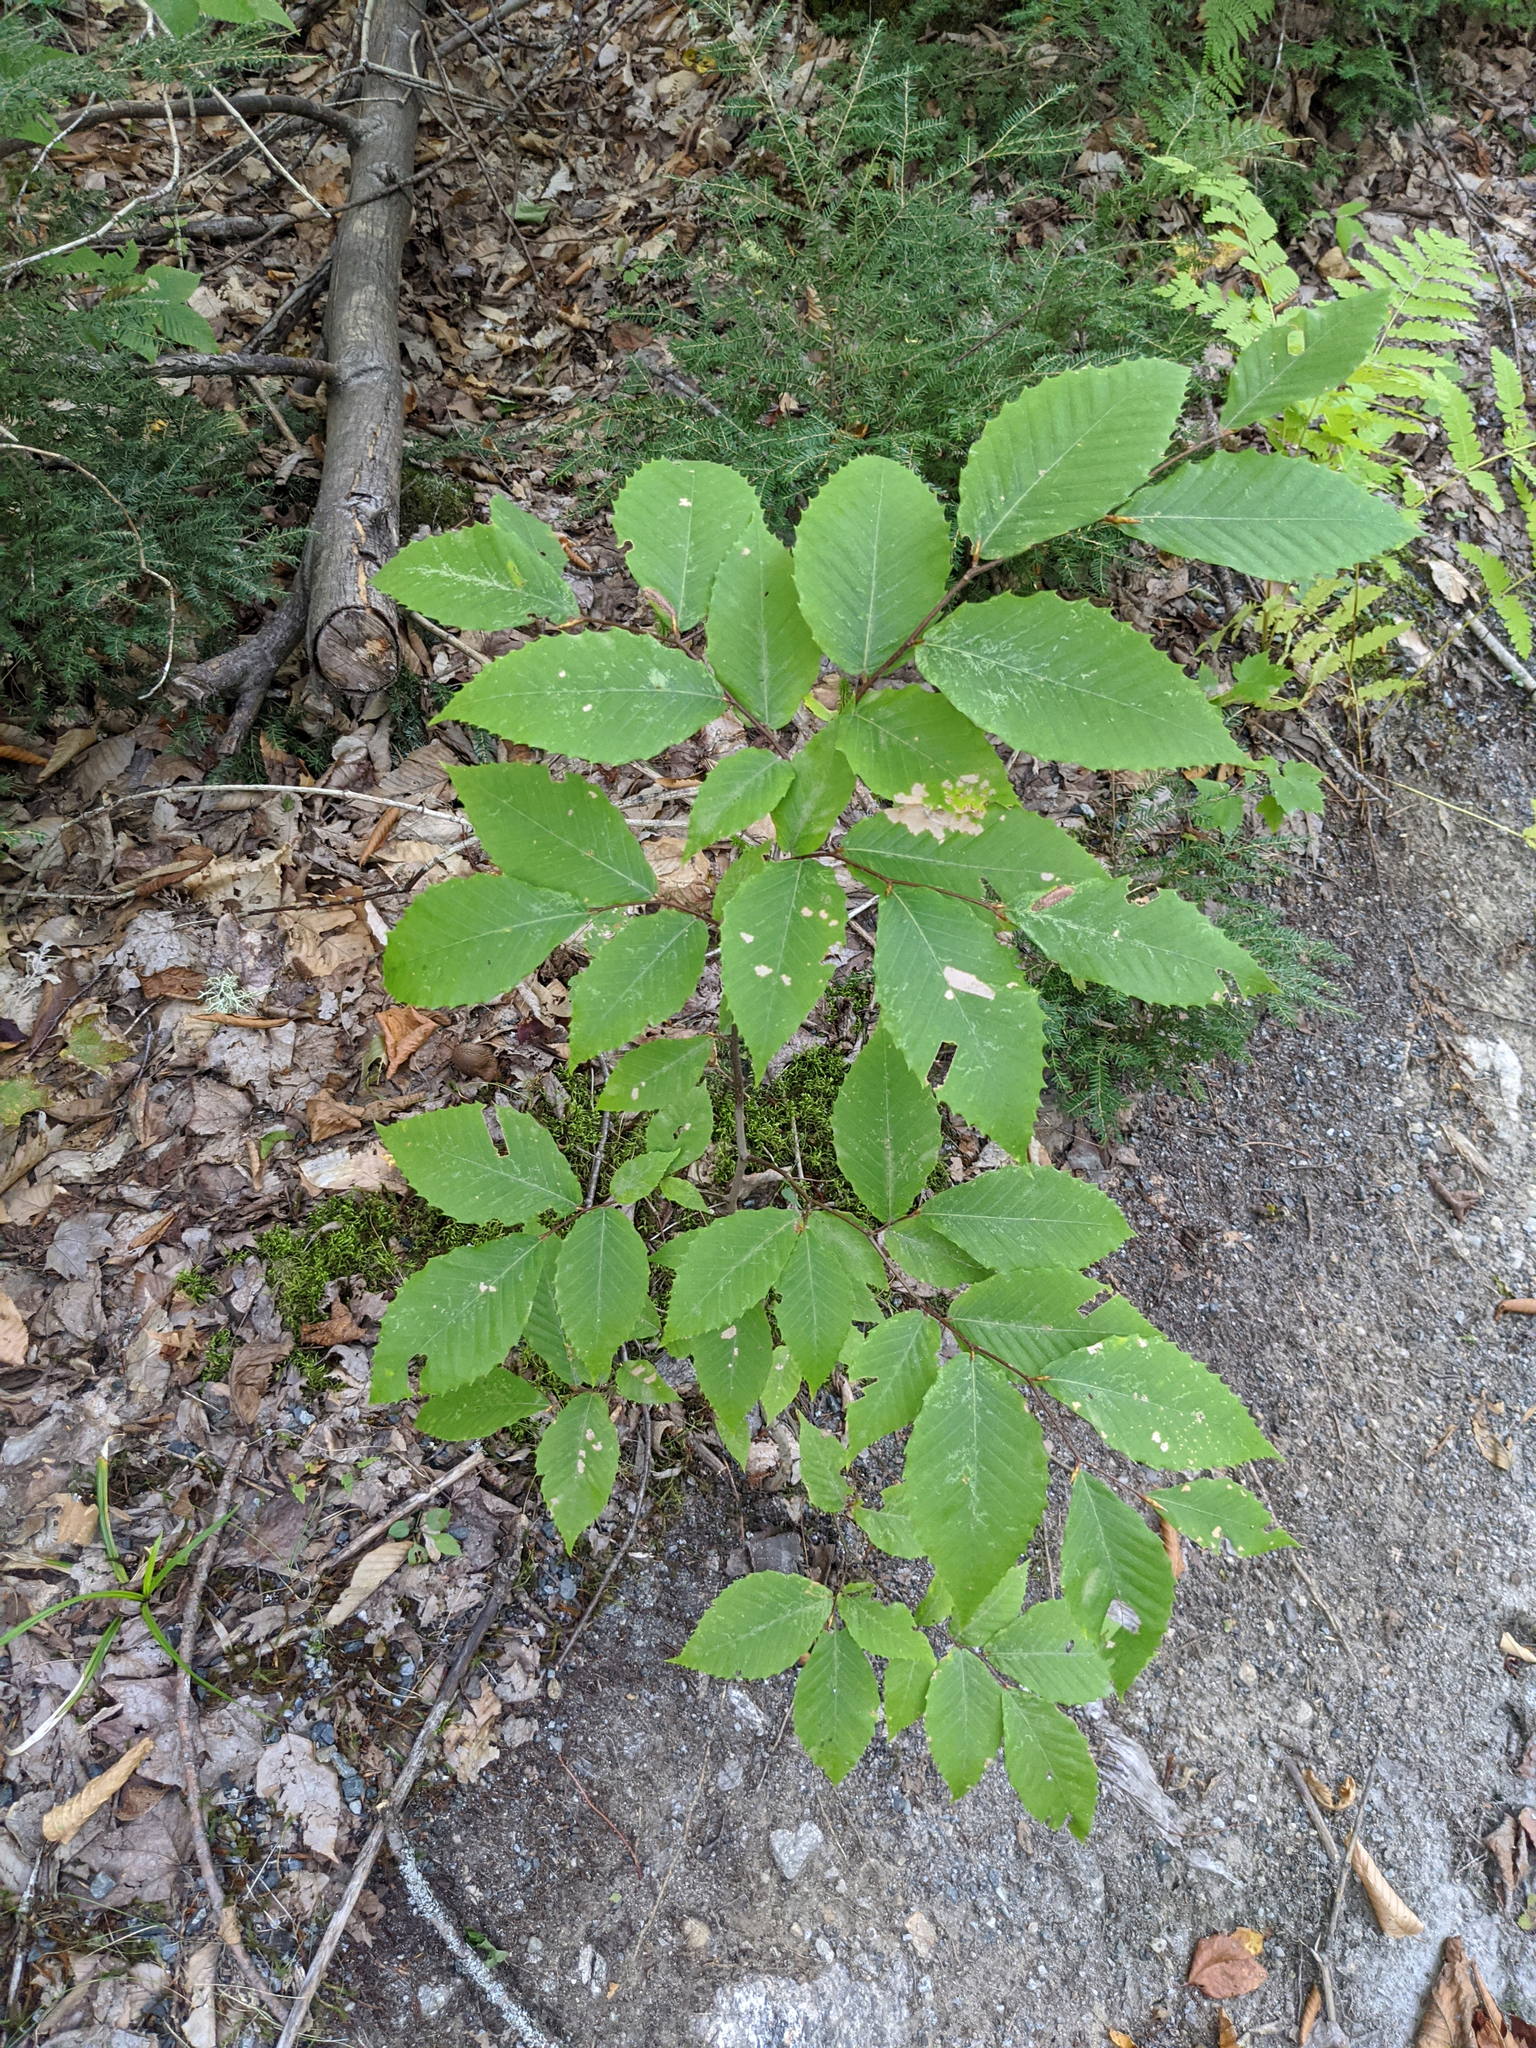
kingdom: Plantae
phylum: Tracheophyta
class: Magnoliopsida
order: Fagales
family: Fagaceae
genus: Fagus
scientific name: Fagus grandifolia
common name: American beech
